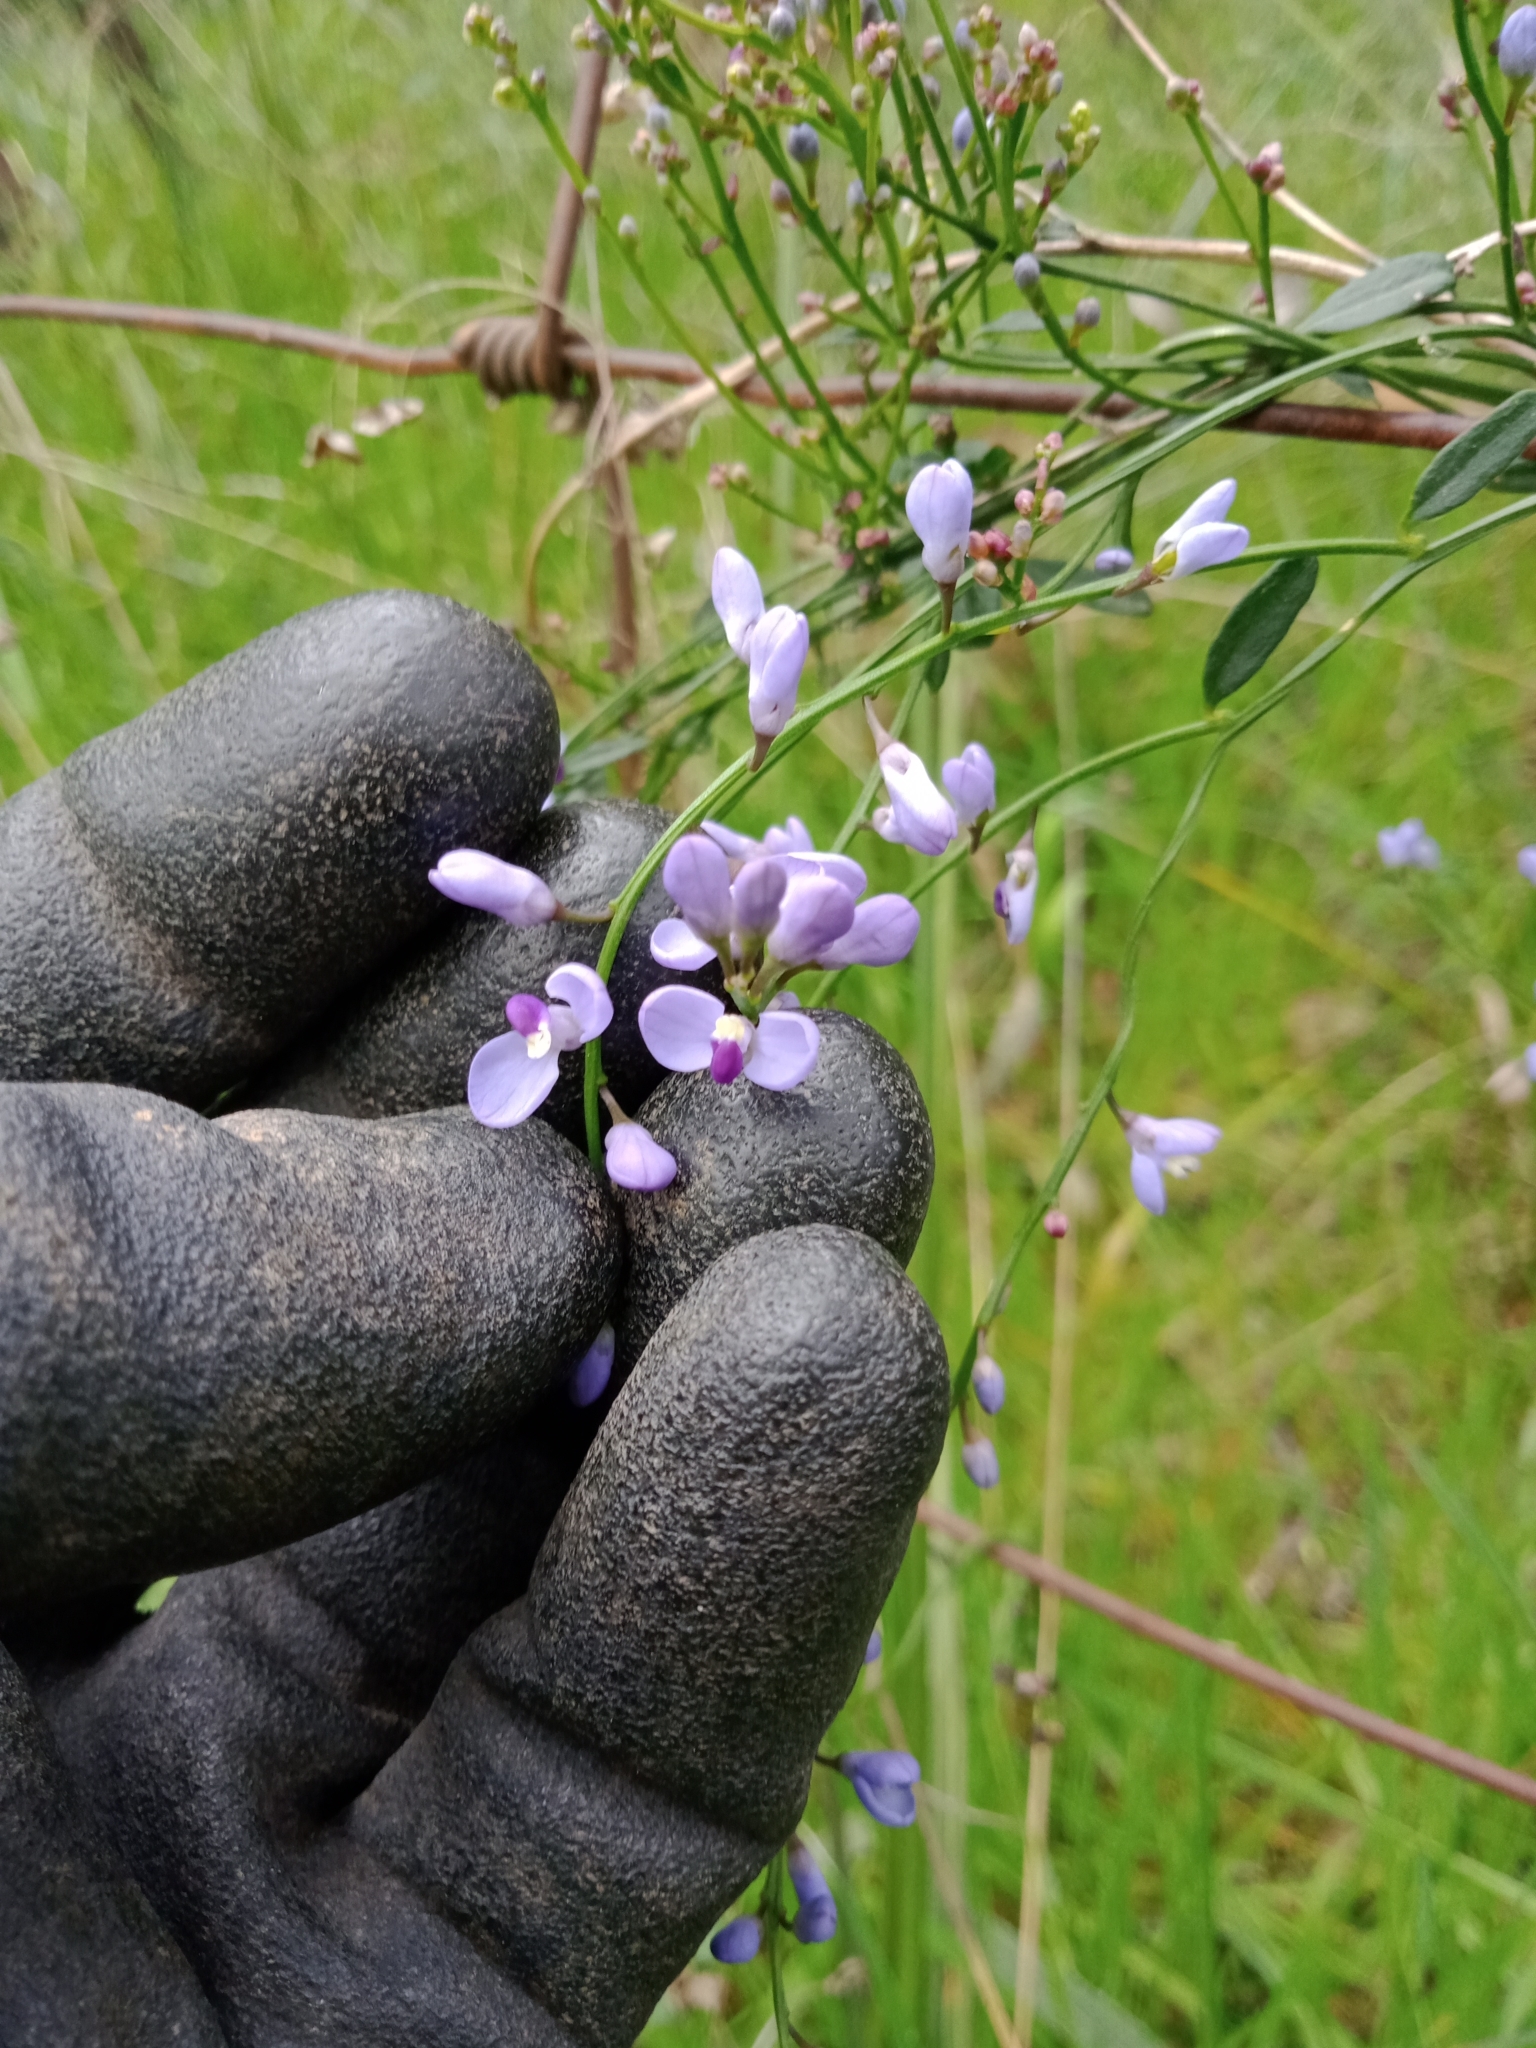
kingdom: Plantae
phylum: Tracheophyta
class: Magnoliopsida
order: Fabales
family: Polygalaceae
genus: Comesperma
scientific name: Comesperma volubile
